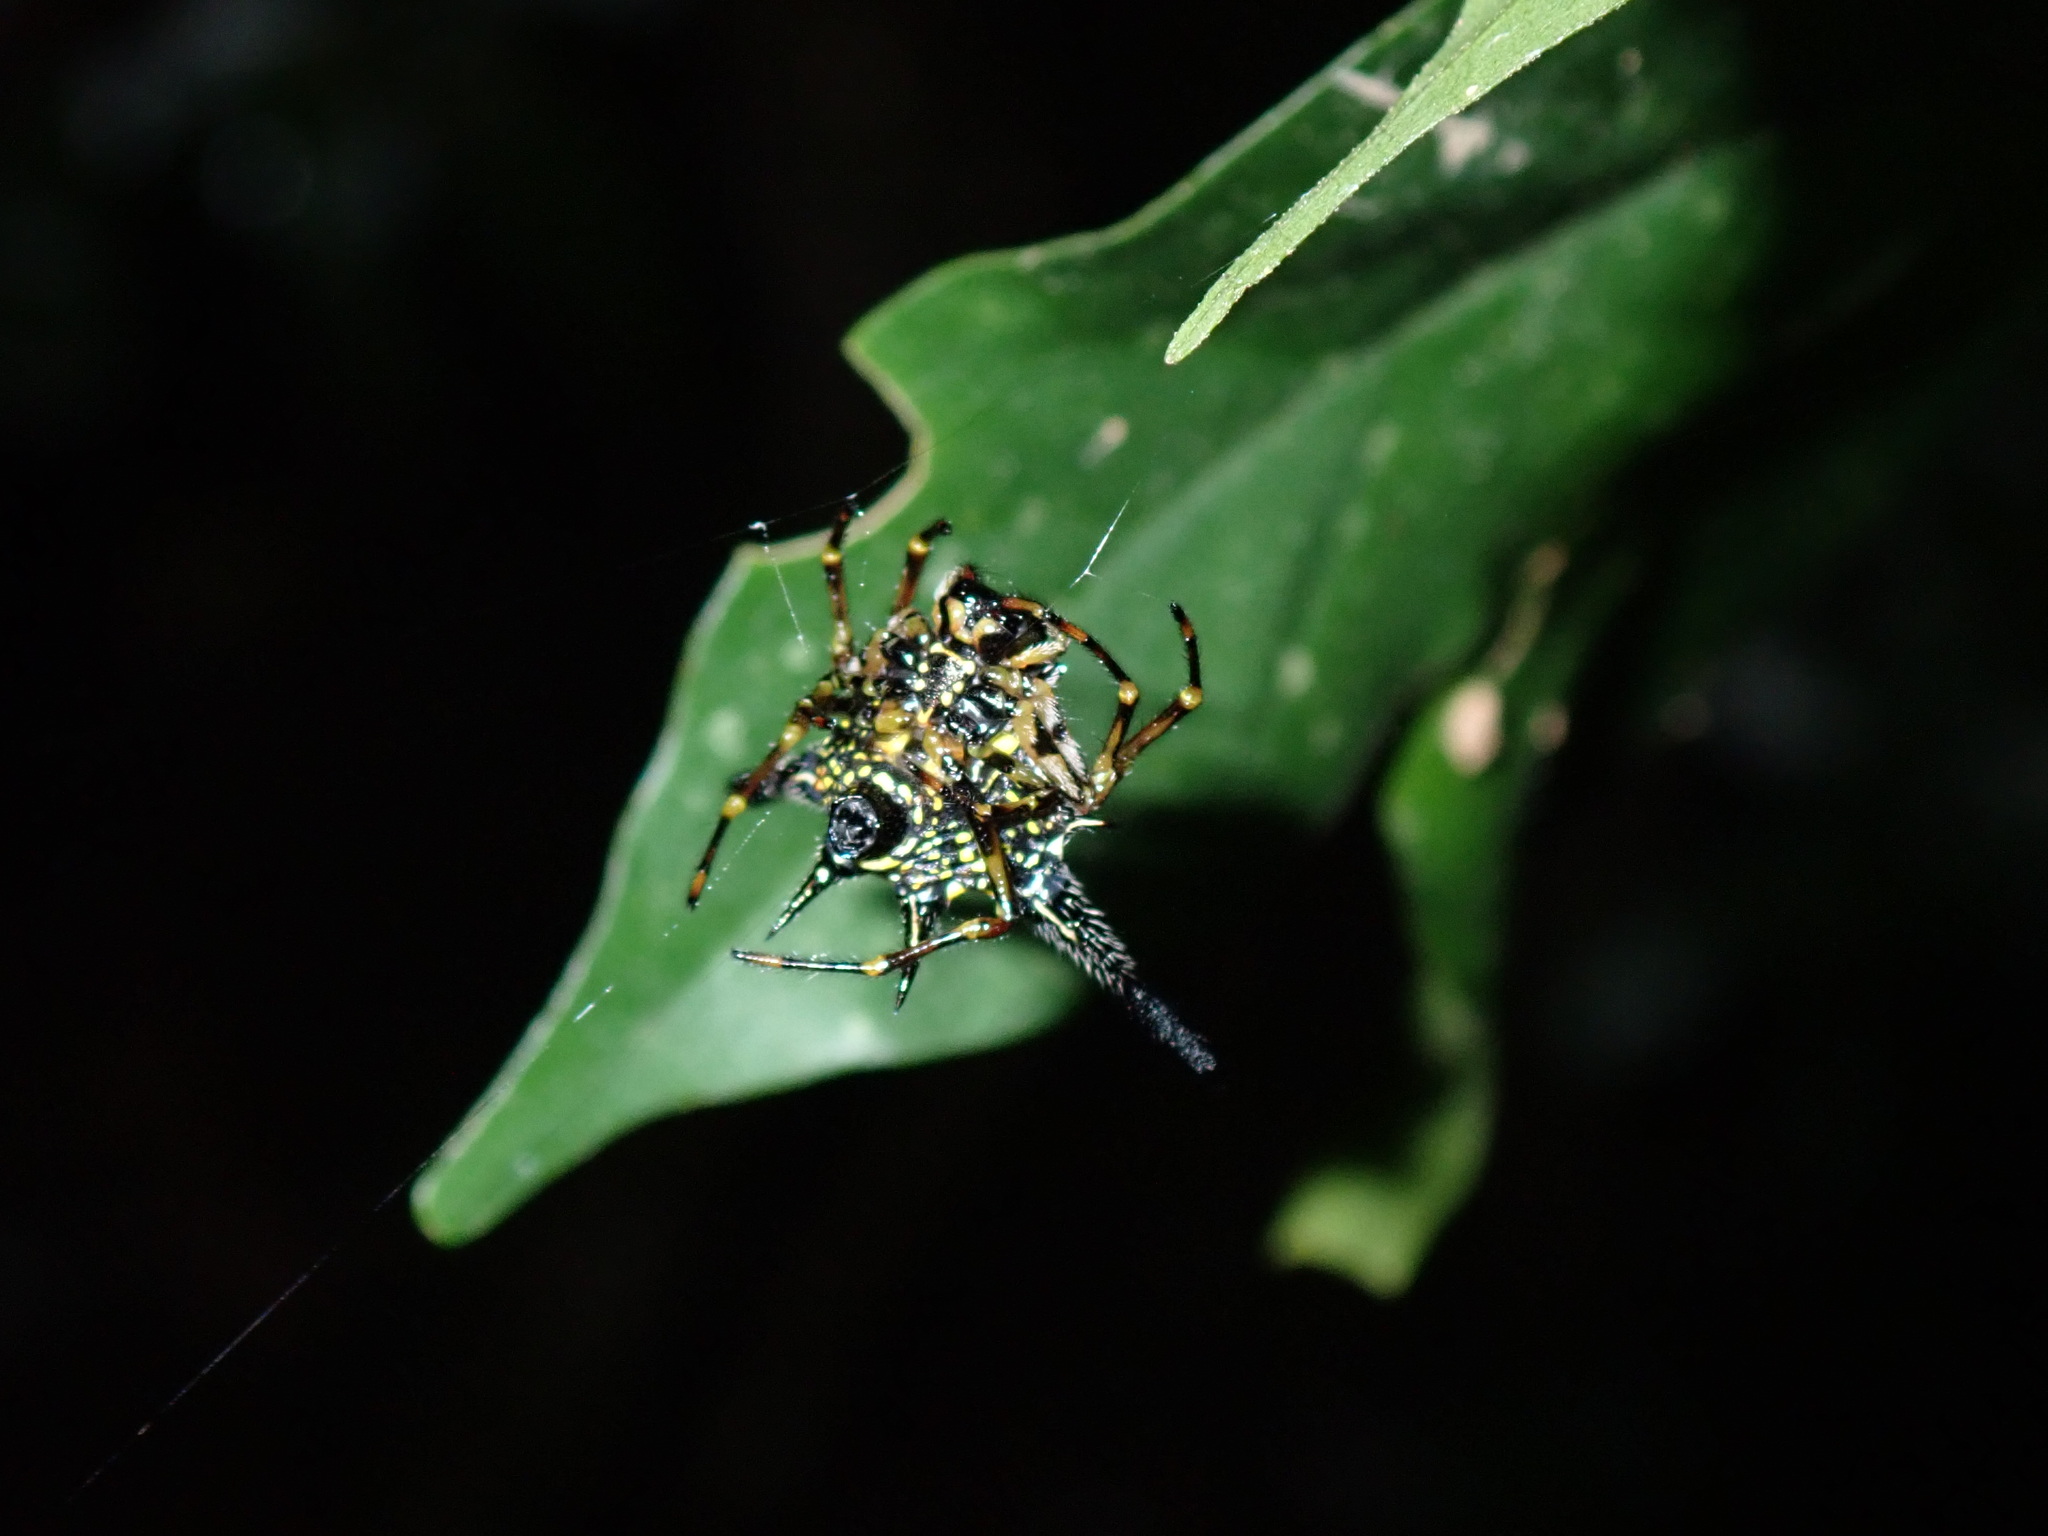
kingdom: Animalia
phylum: Arthropoda
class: Arachnida
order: Araneae
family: Araneidae
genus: Macracantha
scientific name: Macracantha hasselti
